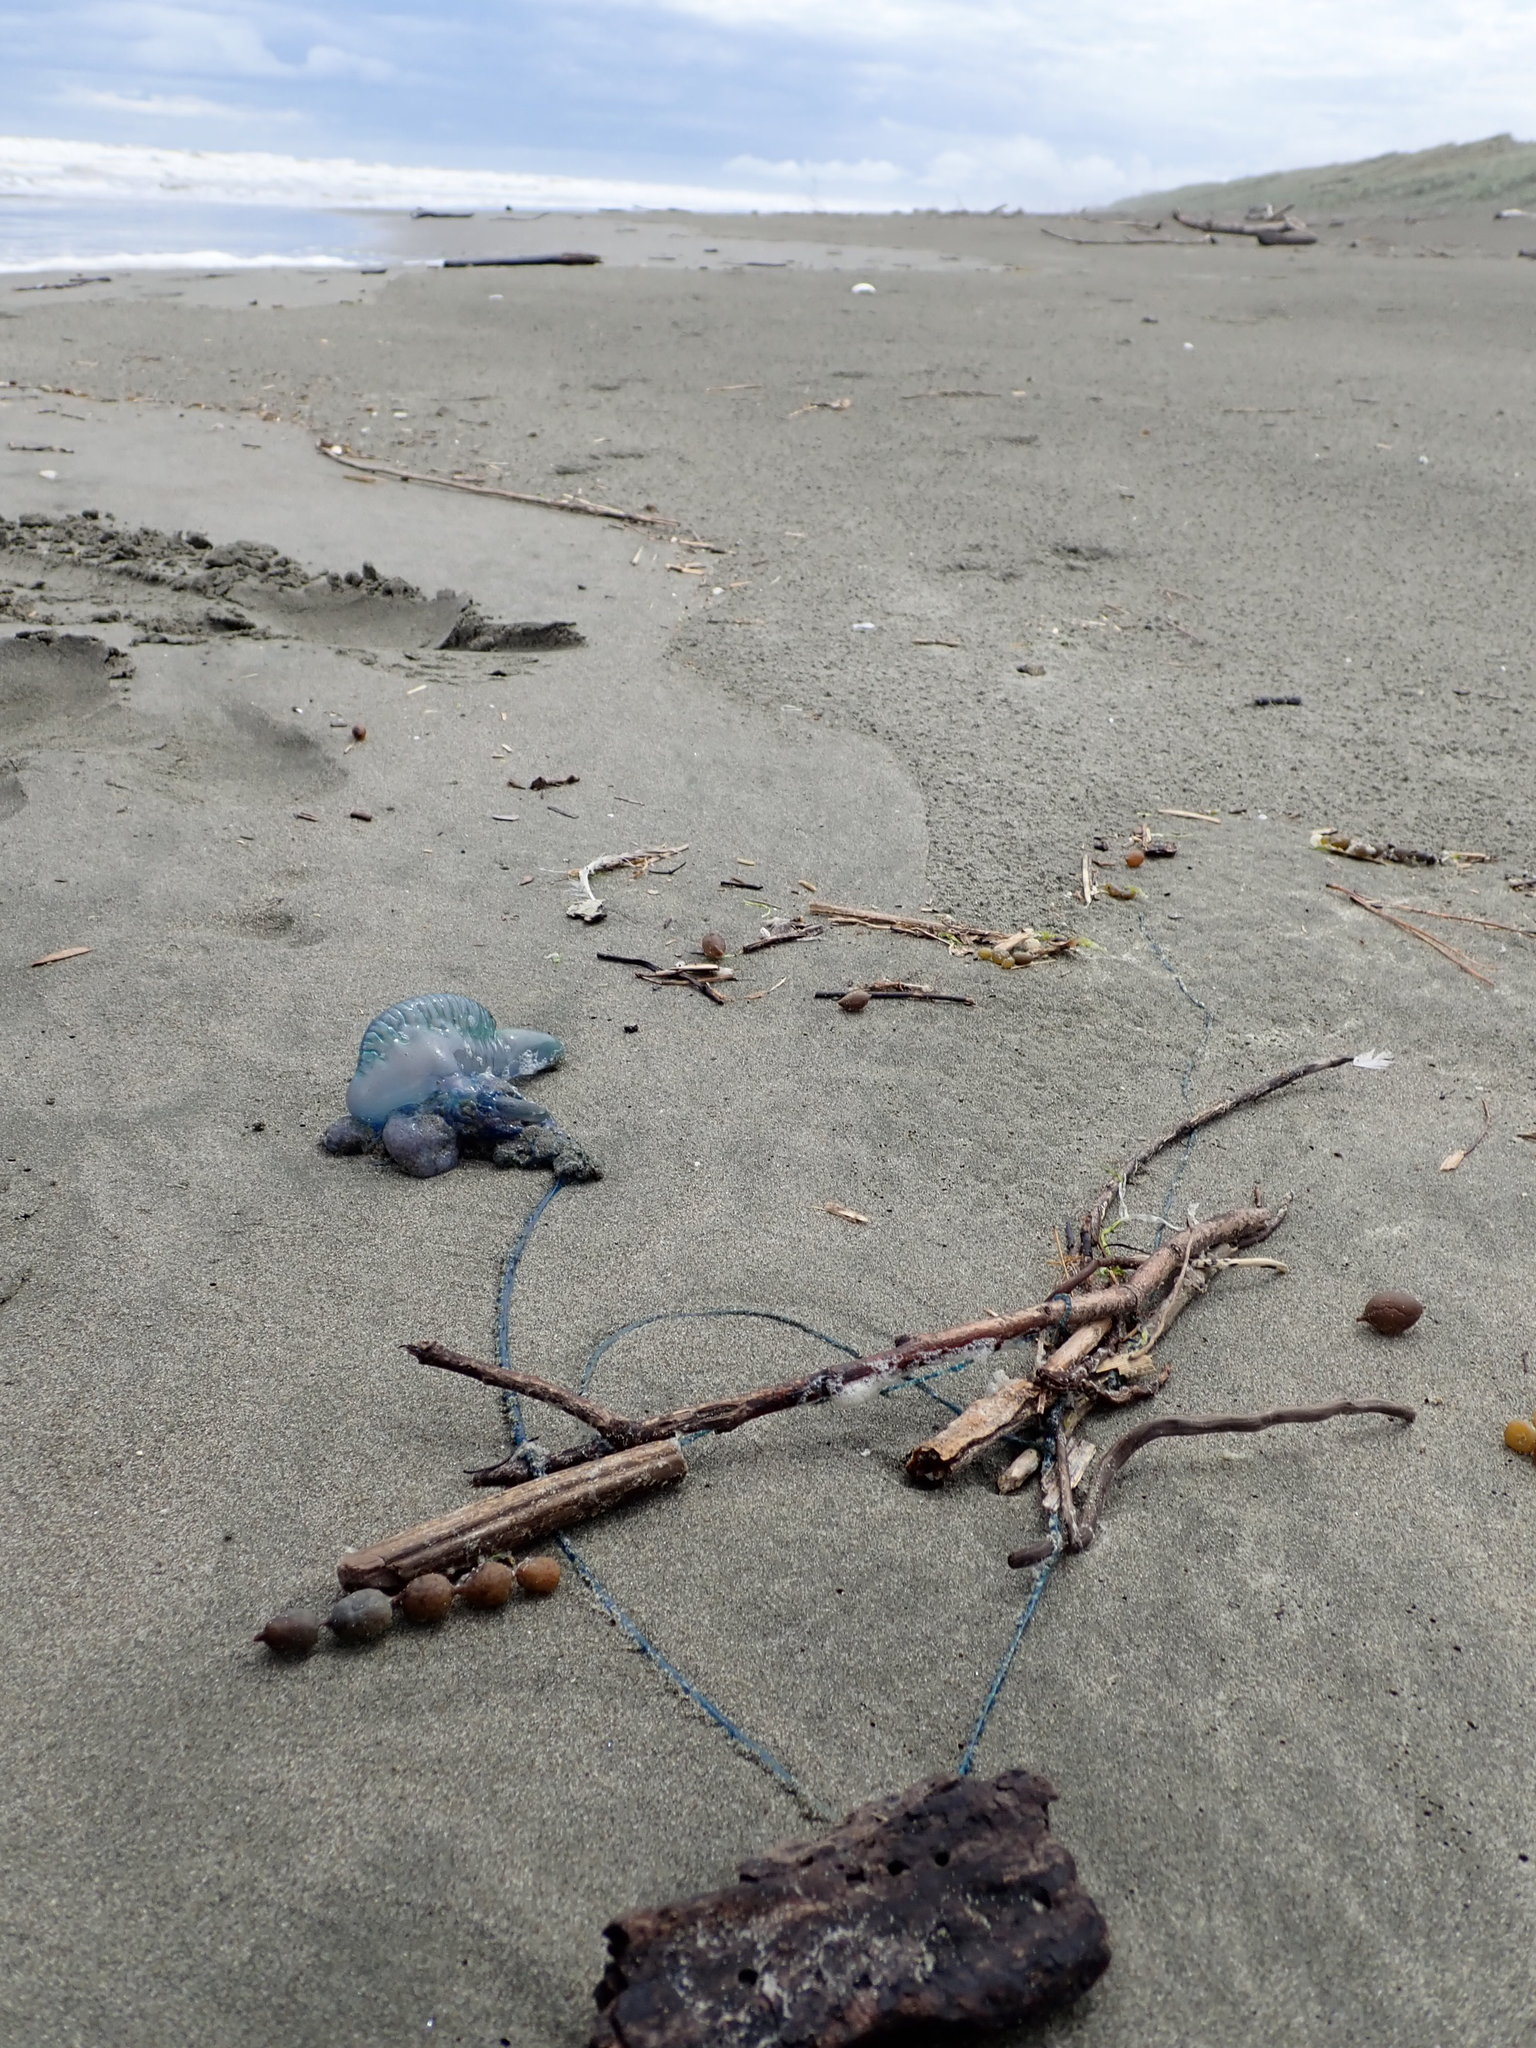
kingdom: Animalia
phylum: Cnidaria
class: Hydrozoa
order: Siphonophorae
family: Physaliidae
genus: Physalia
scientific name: Physalia physalis
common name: Portuguese man-of-war
